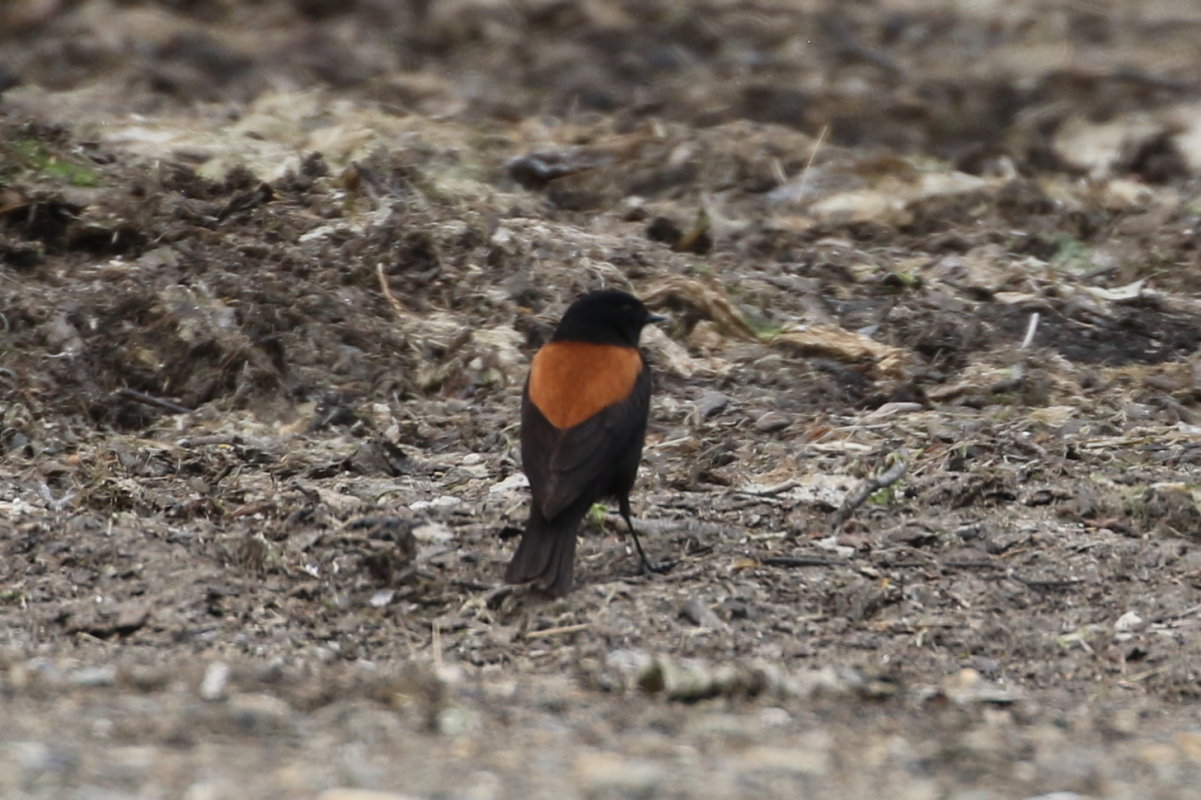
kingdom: Animalia
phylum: Chordata
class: Aves
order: Passeriformes
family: Tyrannidae
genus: Lessonia
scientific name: Lessonia rufa
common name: Austral negrito
